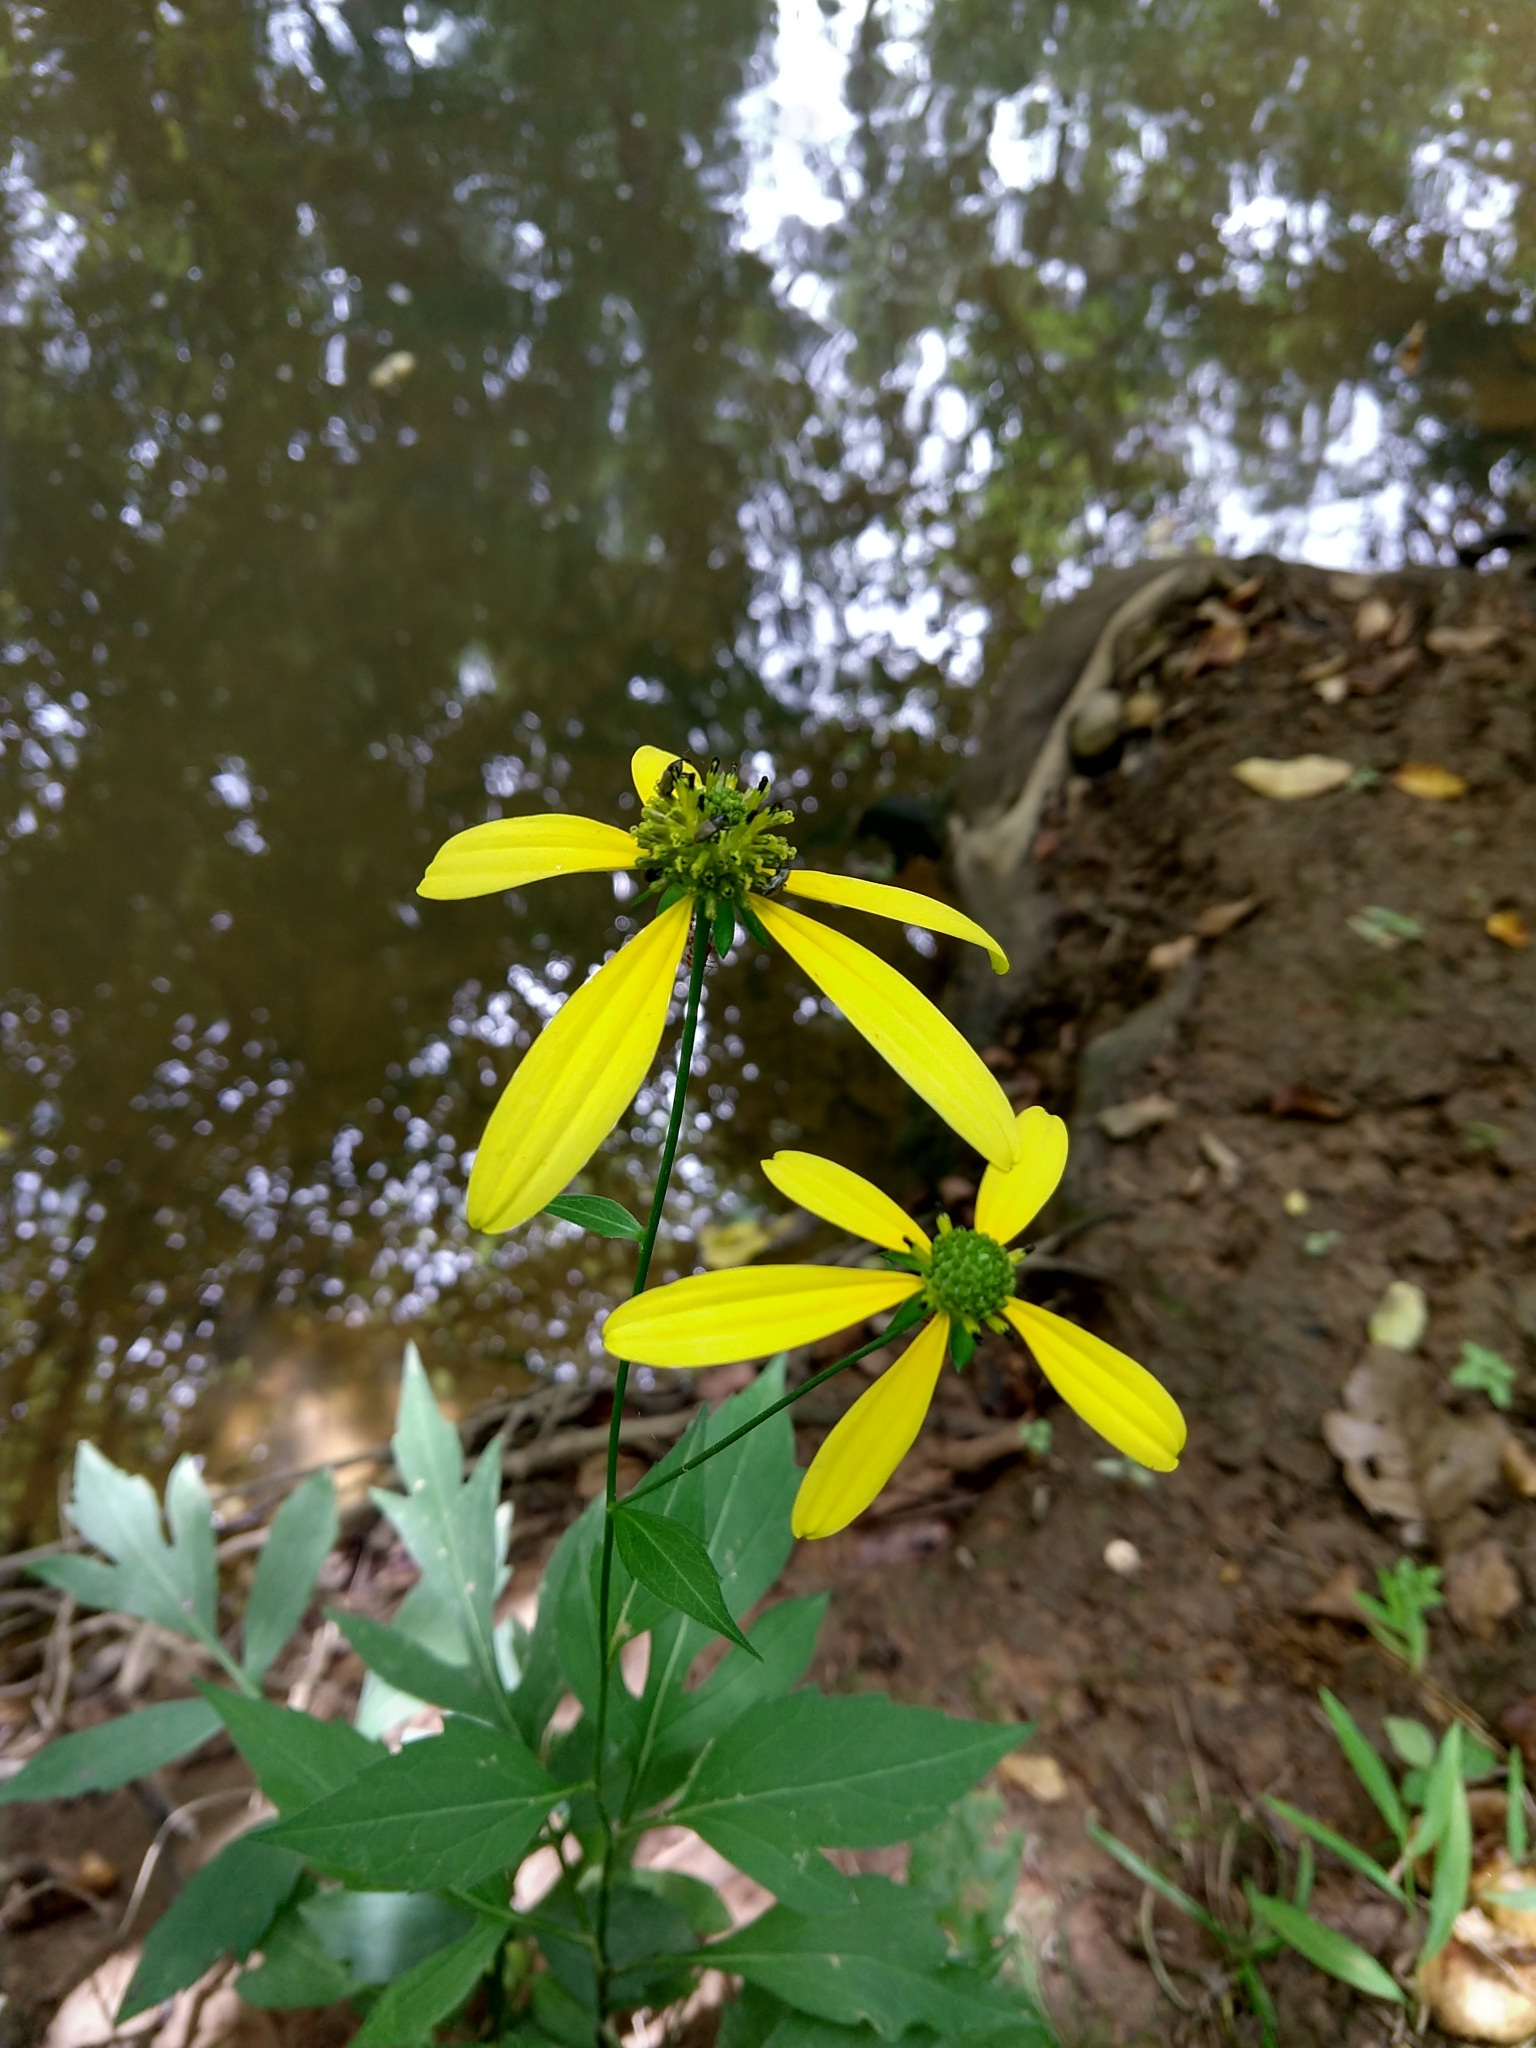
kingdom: Plantae
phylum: Tracheophyta
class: Magnoliopsida
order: Asterales
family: Asteraceae
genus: Rudbeckia
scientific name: Rudbeckia laciniata
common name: Coneflower
